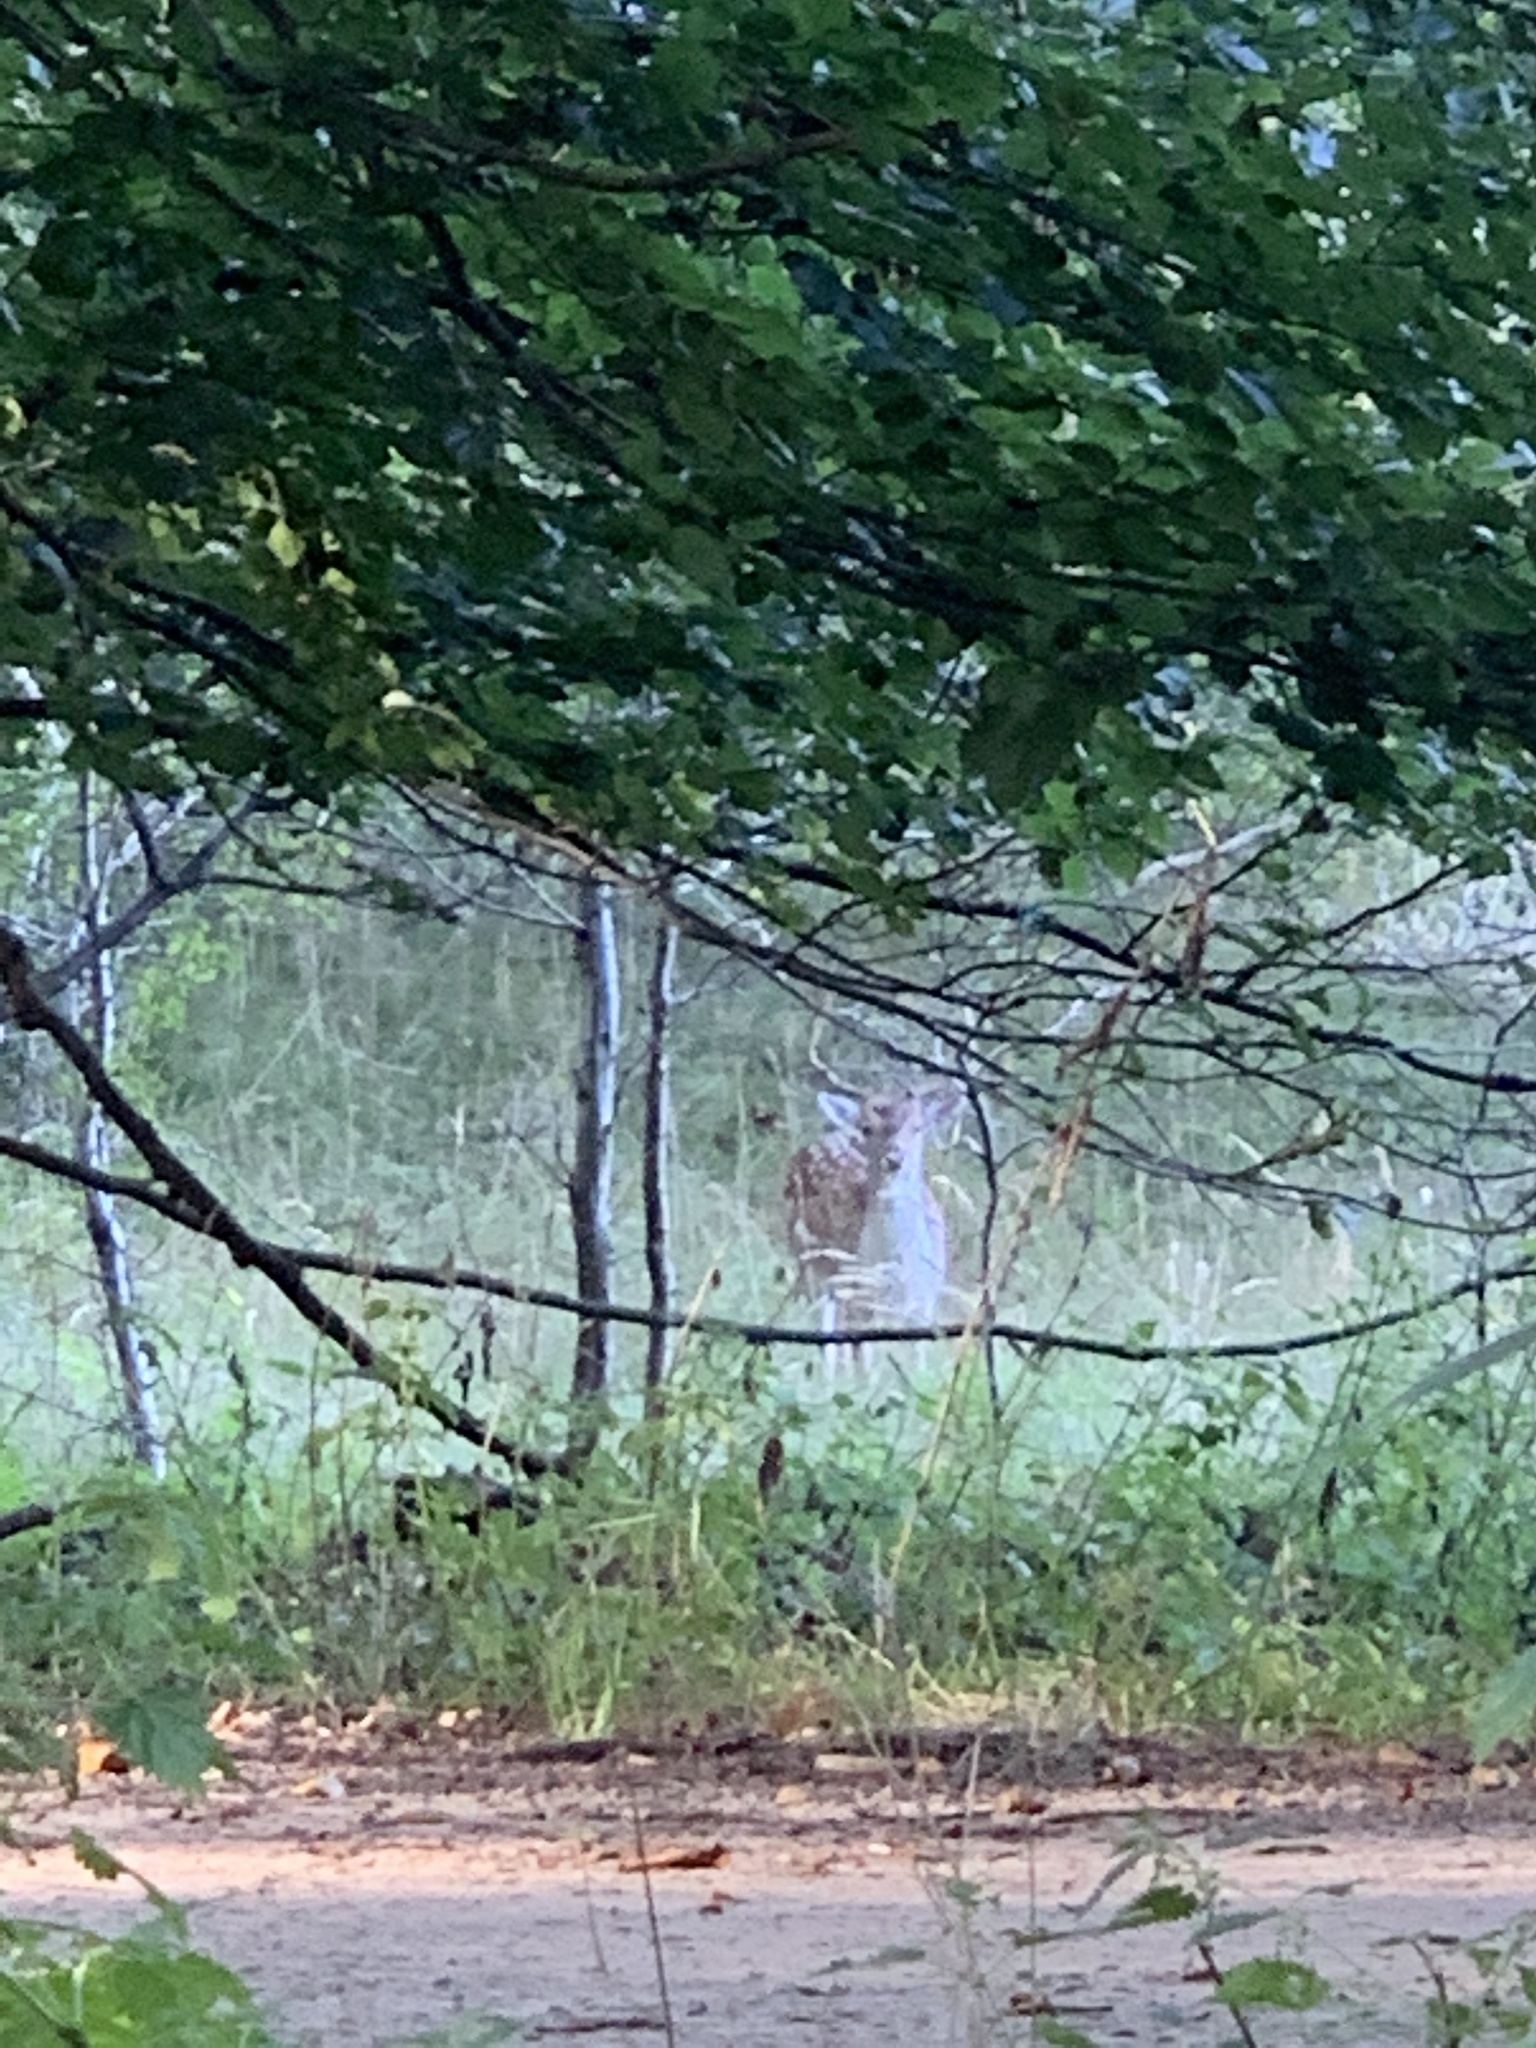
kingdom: Animalia
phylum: Chordata
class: Mammalia
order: Artiodactyla
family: Cervidae
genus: Dama
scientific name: Dama dama
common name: Fallow deer
